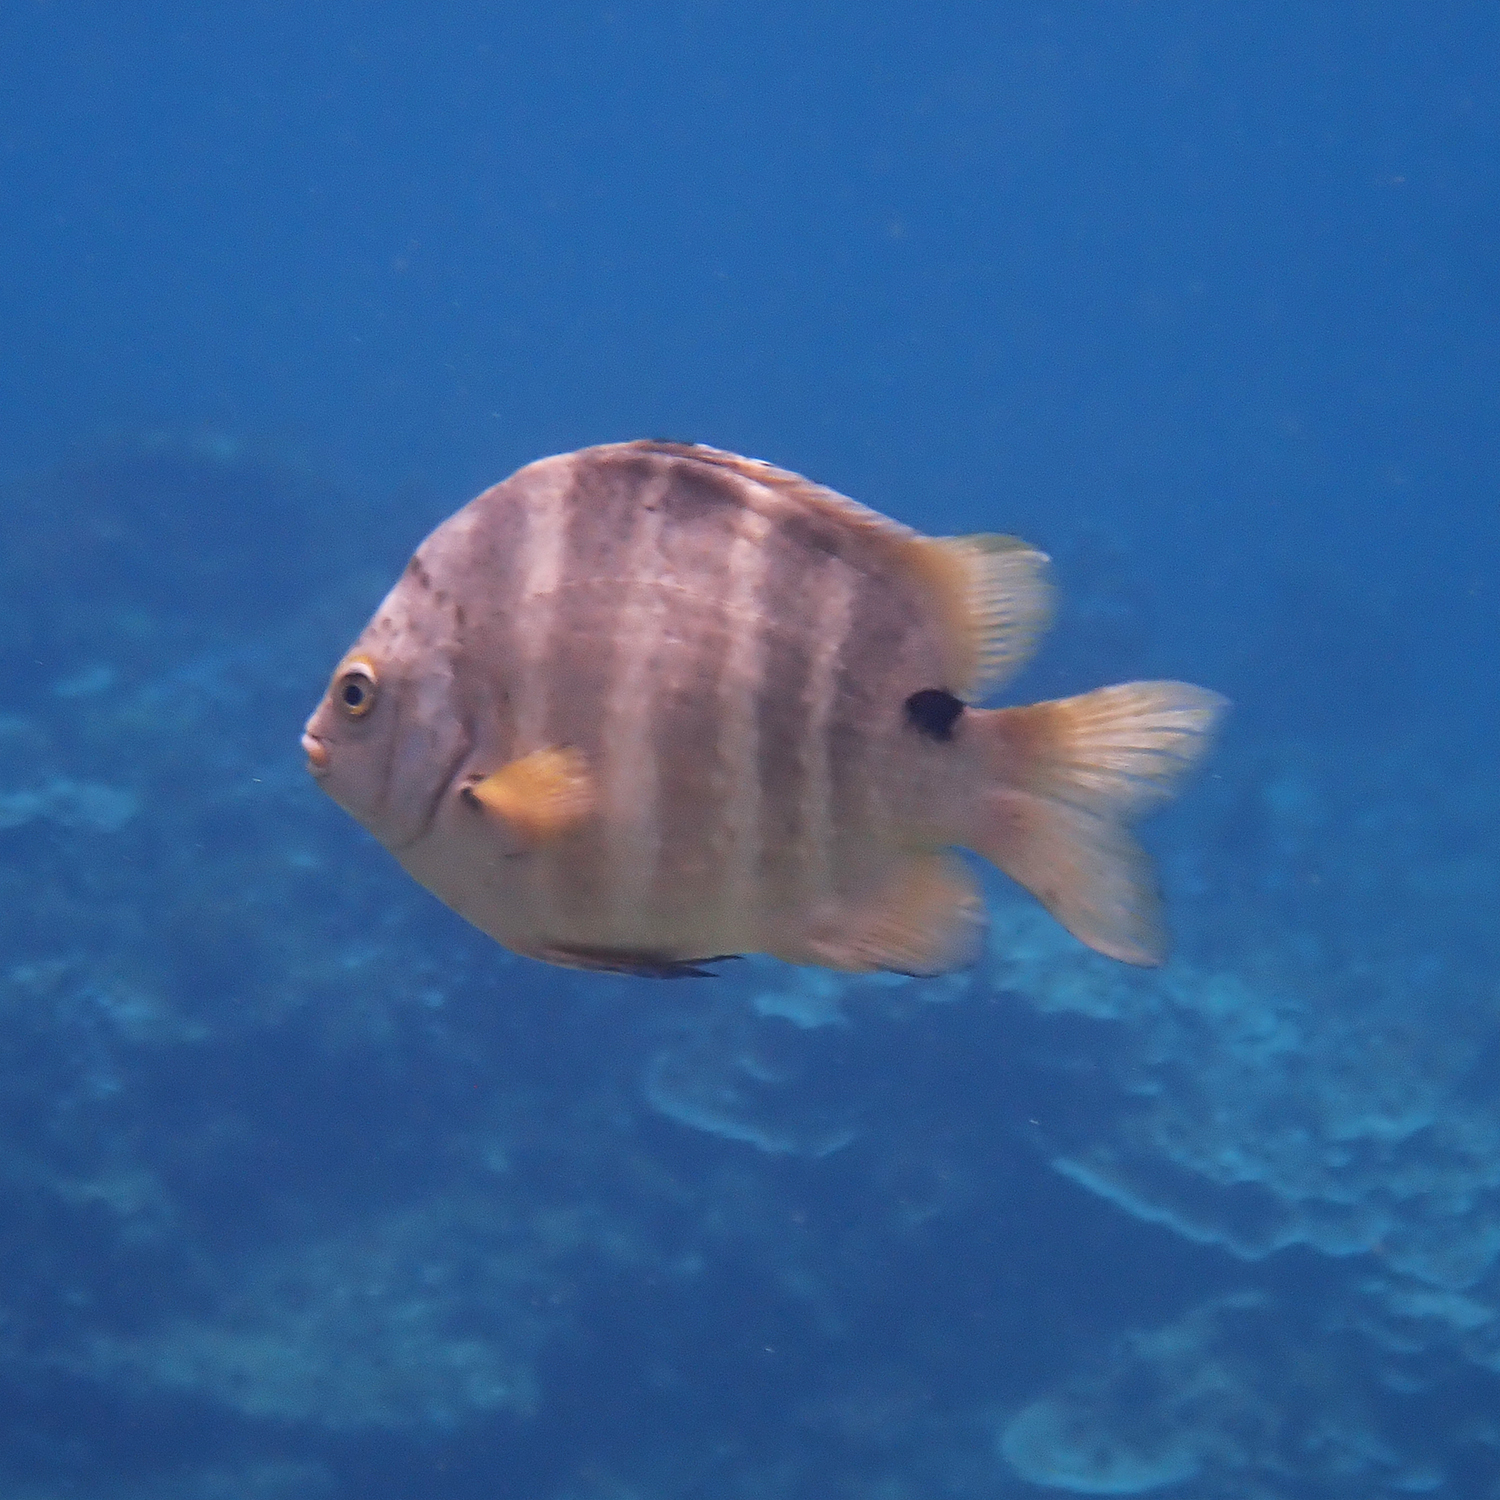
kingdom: Animalia
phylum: Chordata
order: Perciformes
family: Pomacentridae
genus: Abudefduf
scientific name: Abudefduf sordidus
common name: Blackspot sergeant
